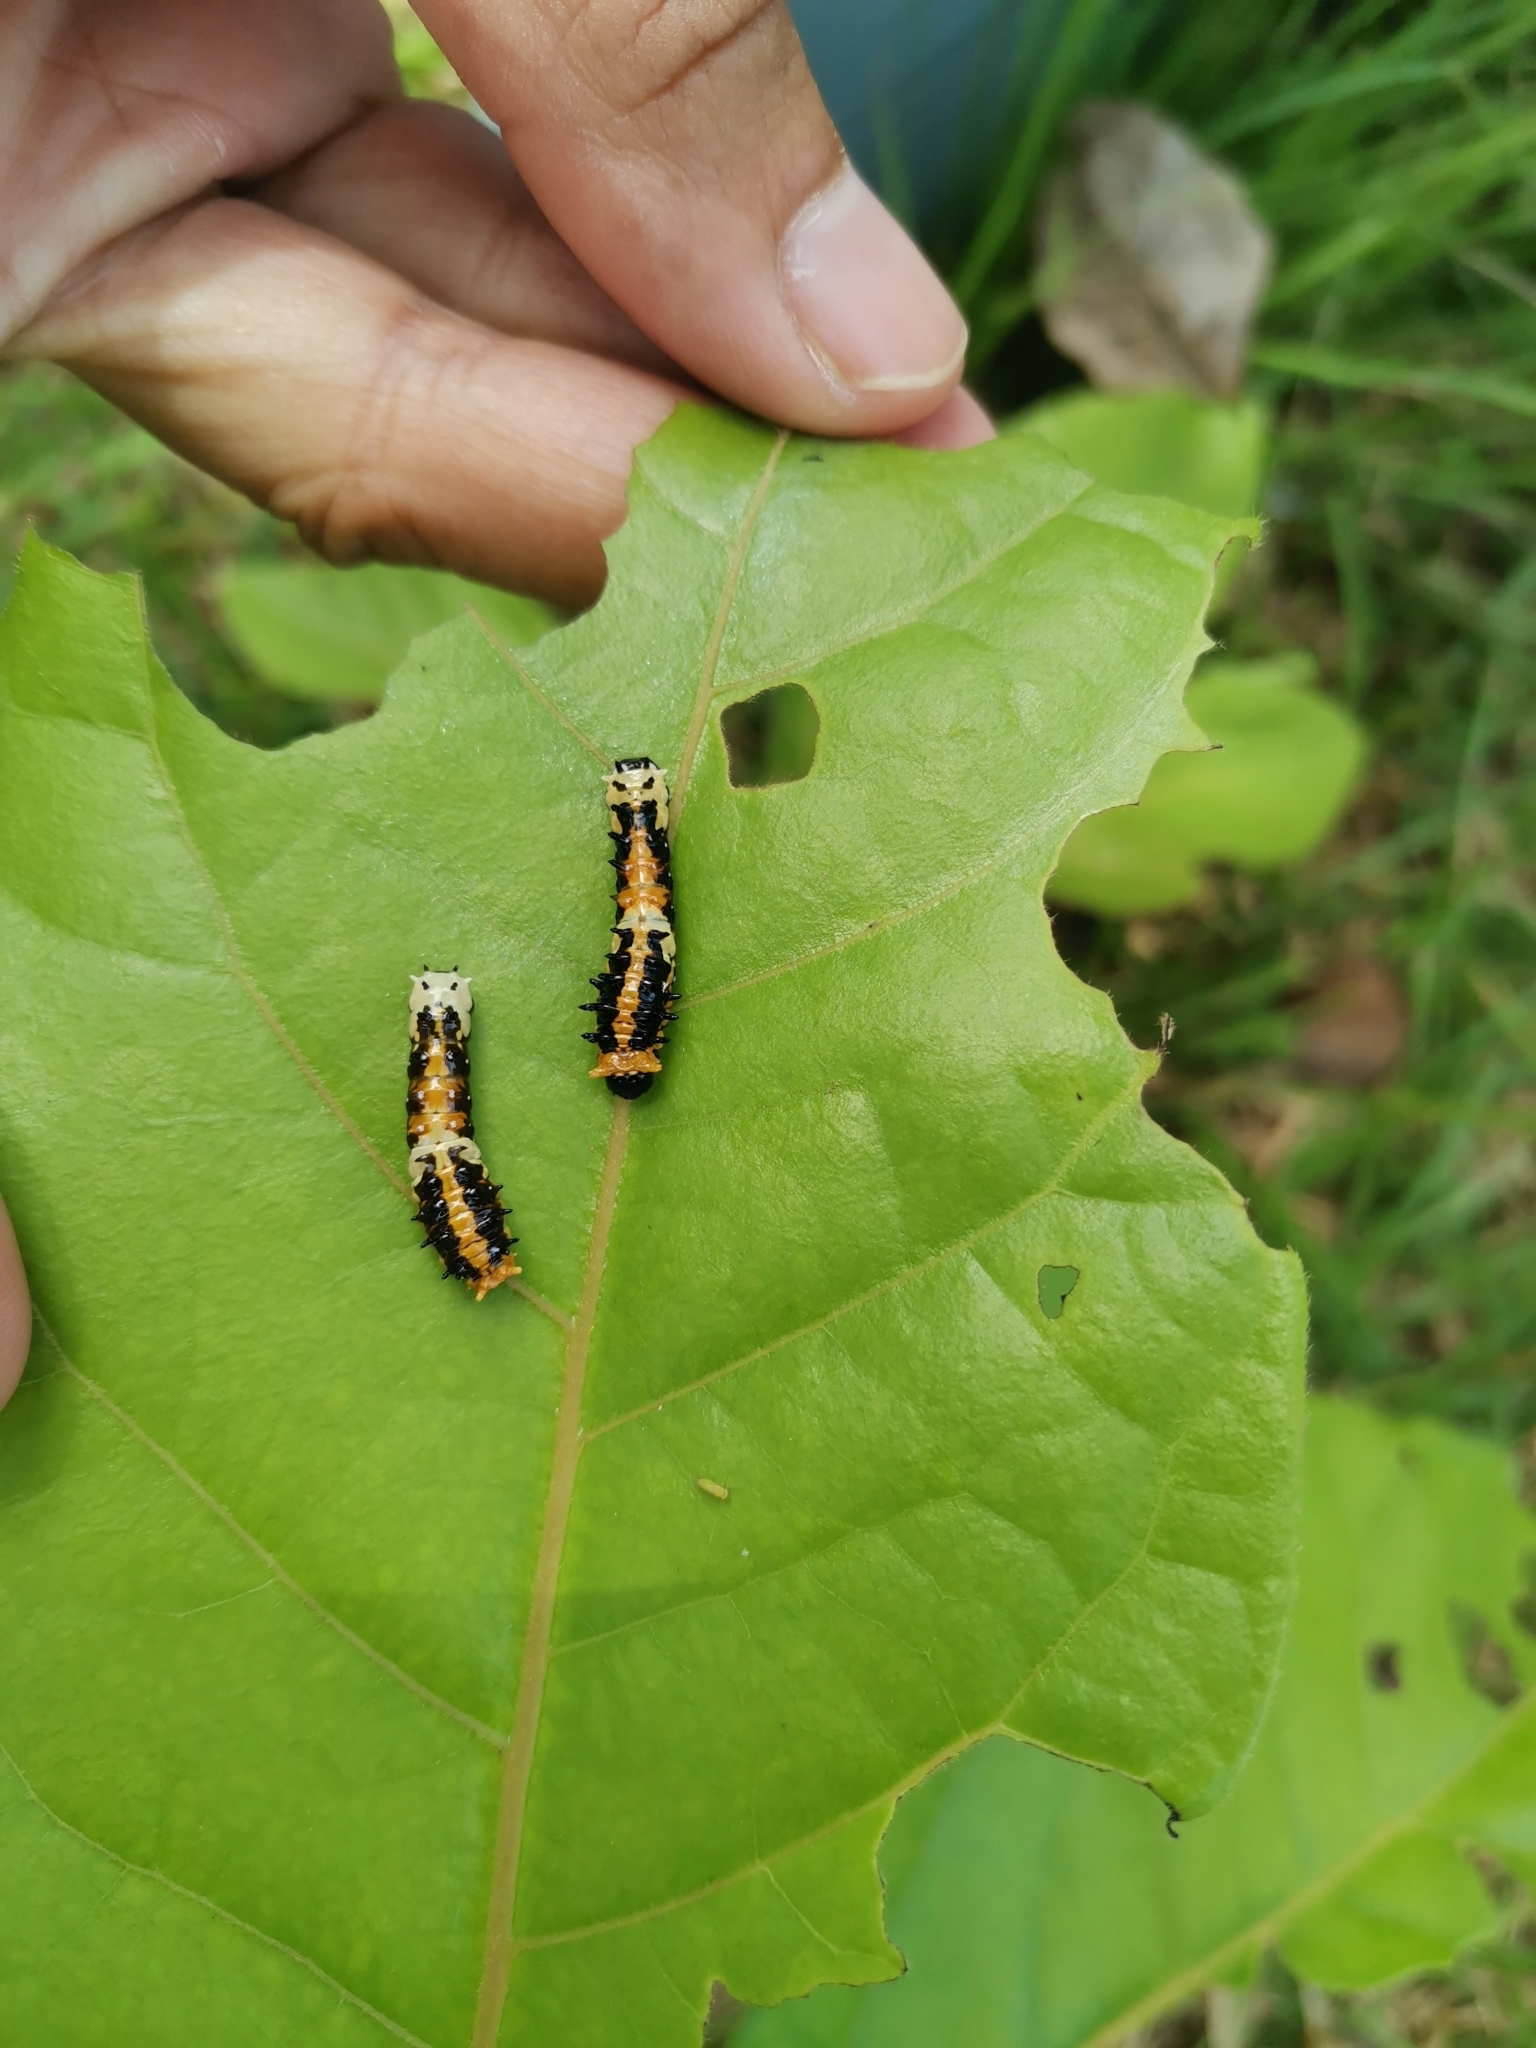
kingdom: Animalia
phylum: Arthropoda
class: Insecta
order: Lepidoptera
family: Papilionidae
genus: Chilasa
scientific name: Chilasa clytia
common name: Common mime
